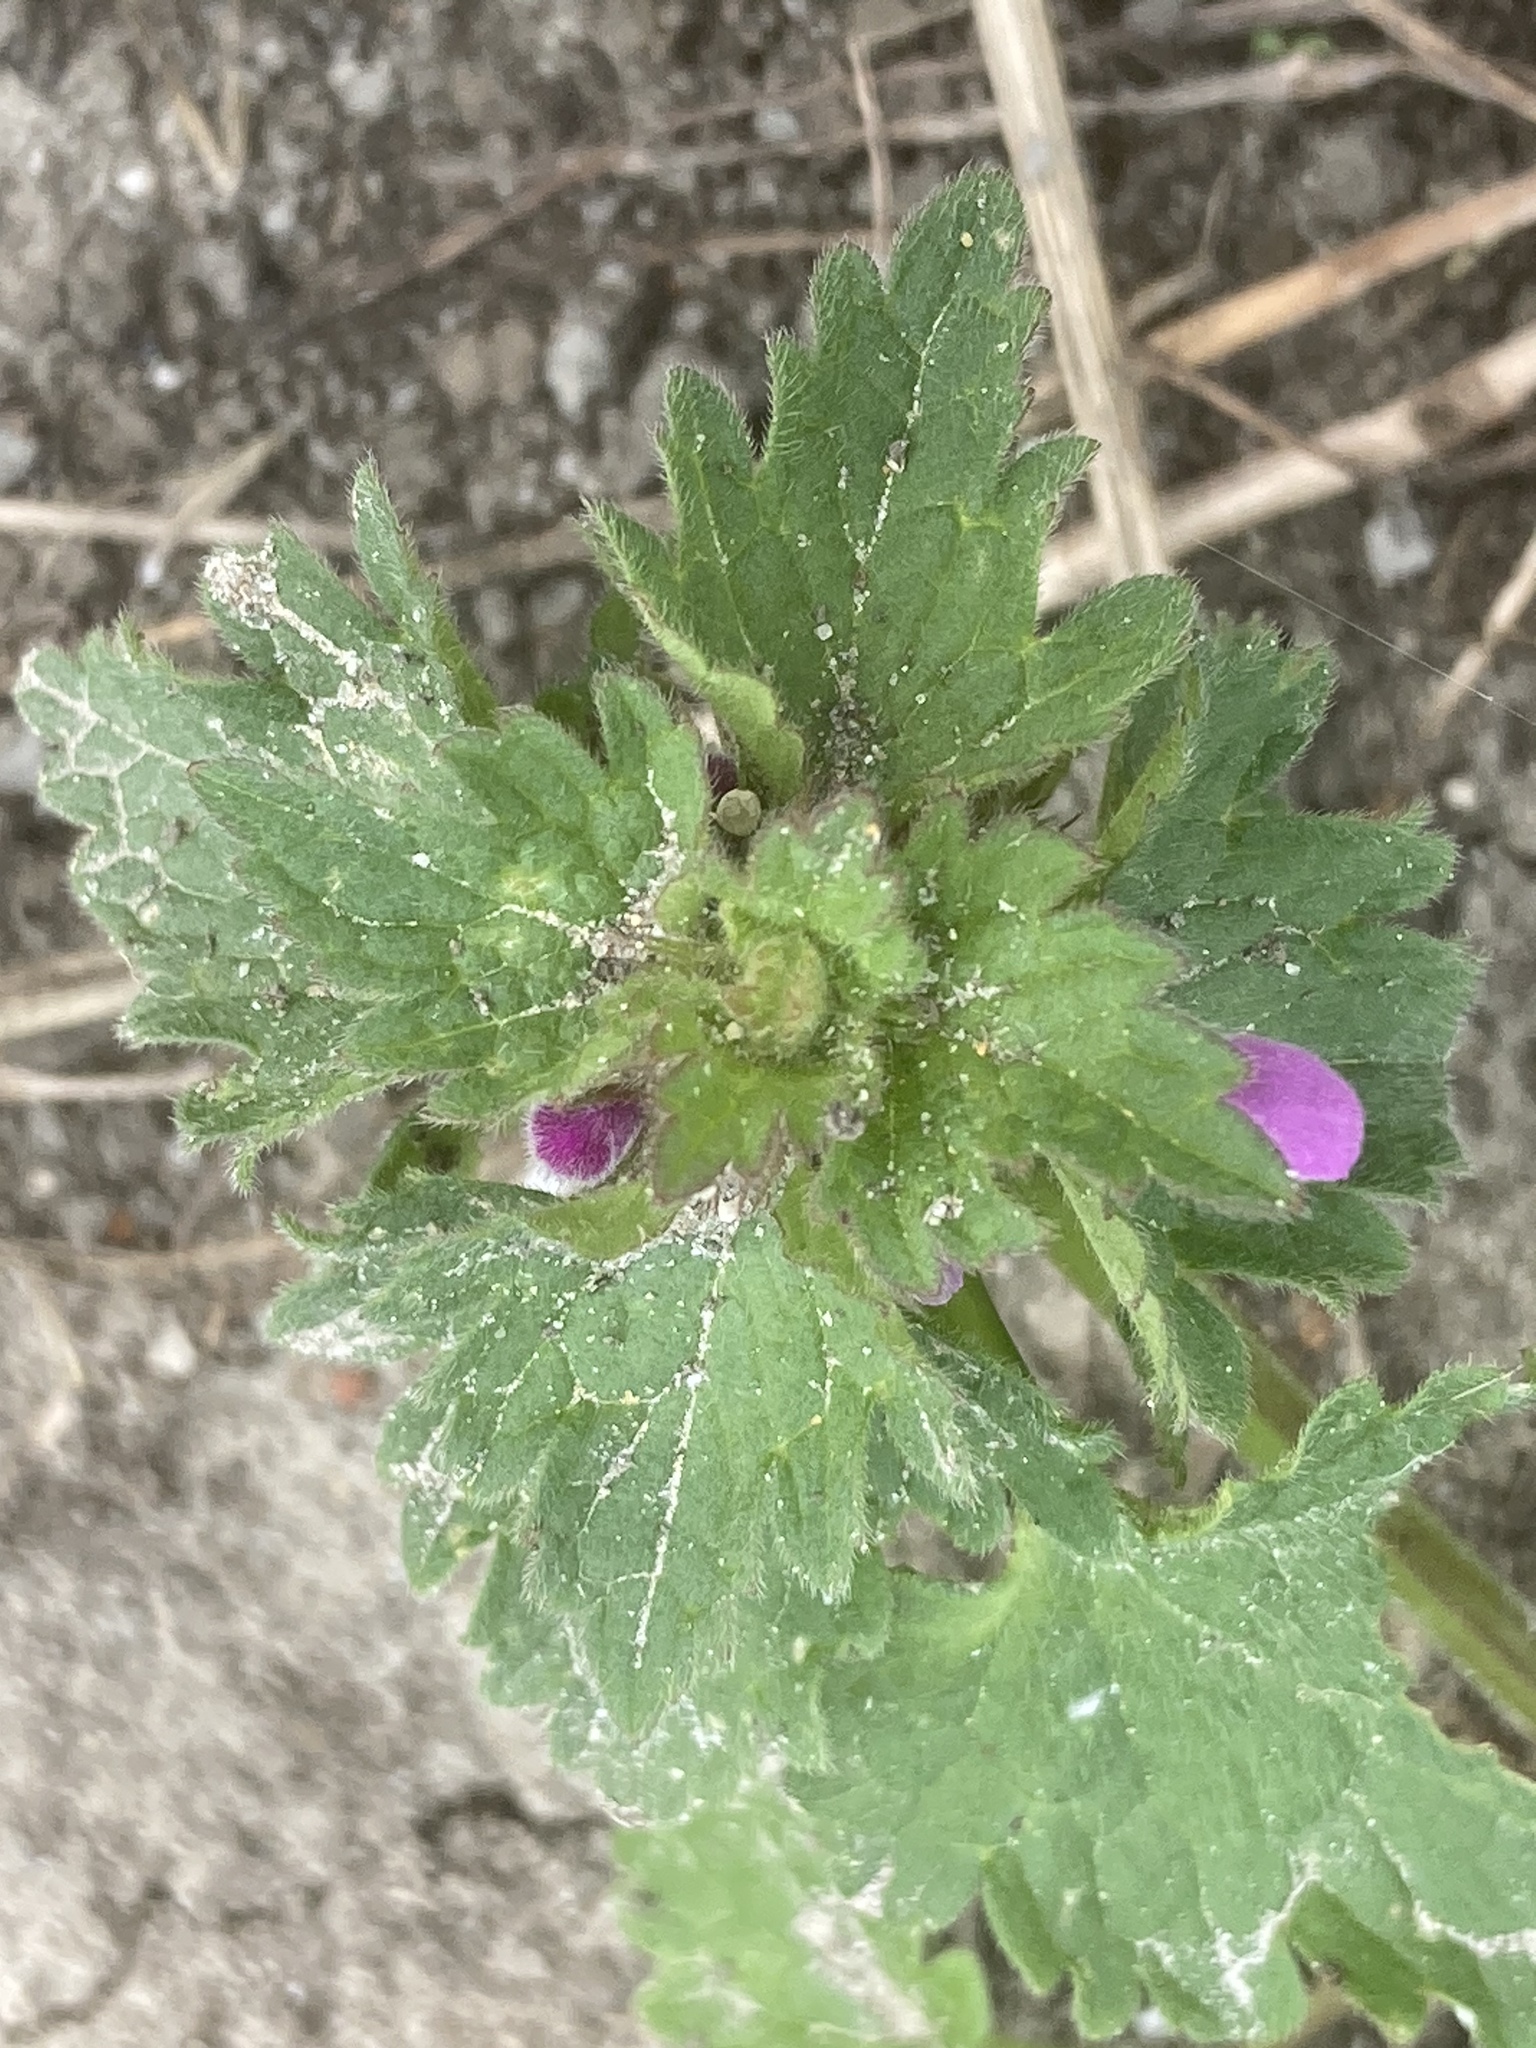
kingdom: Plantae
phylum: Tracheophyta
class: Magnoliopsida
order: Lamiales
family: Lamiaceae
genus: Lamium
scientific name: Lamium hybridum
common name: Cut-leaved dead-nettle
